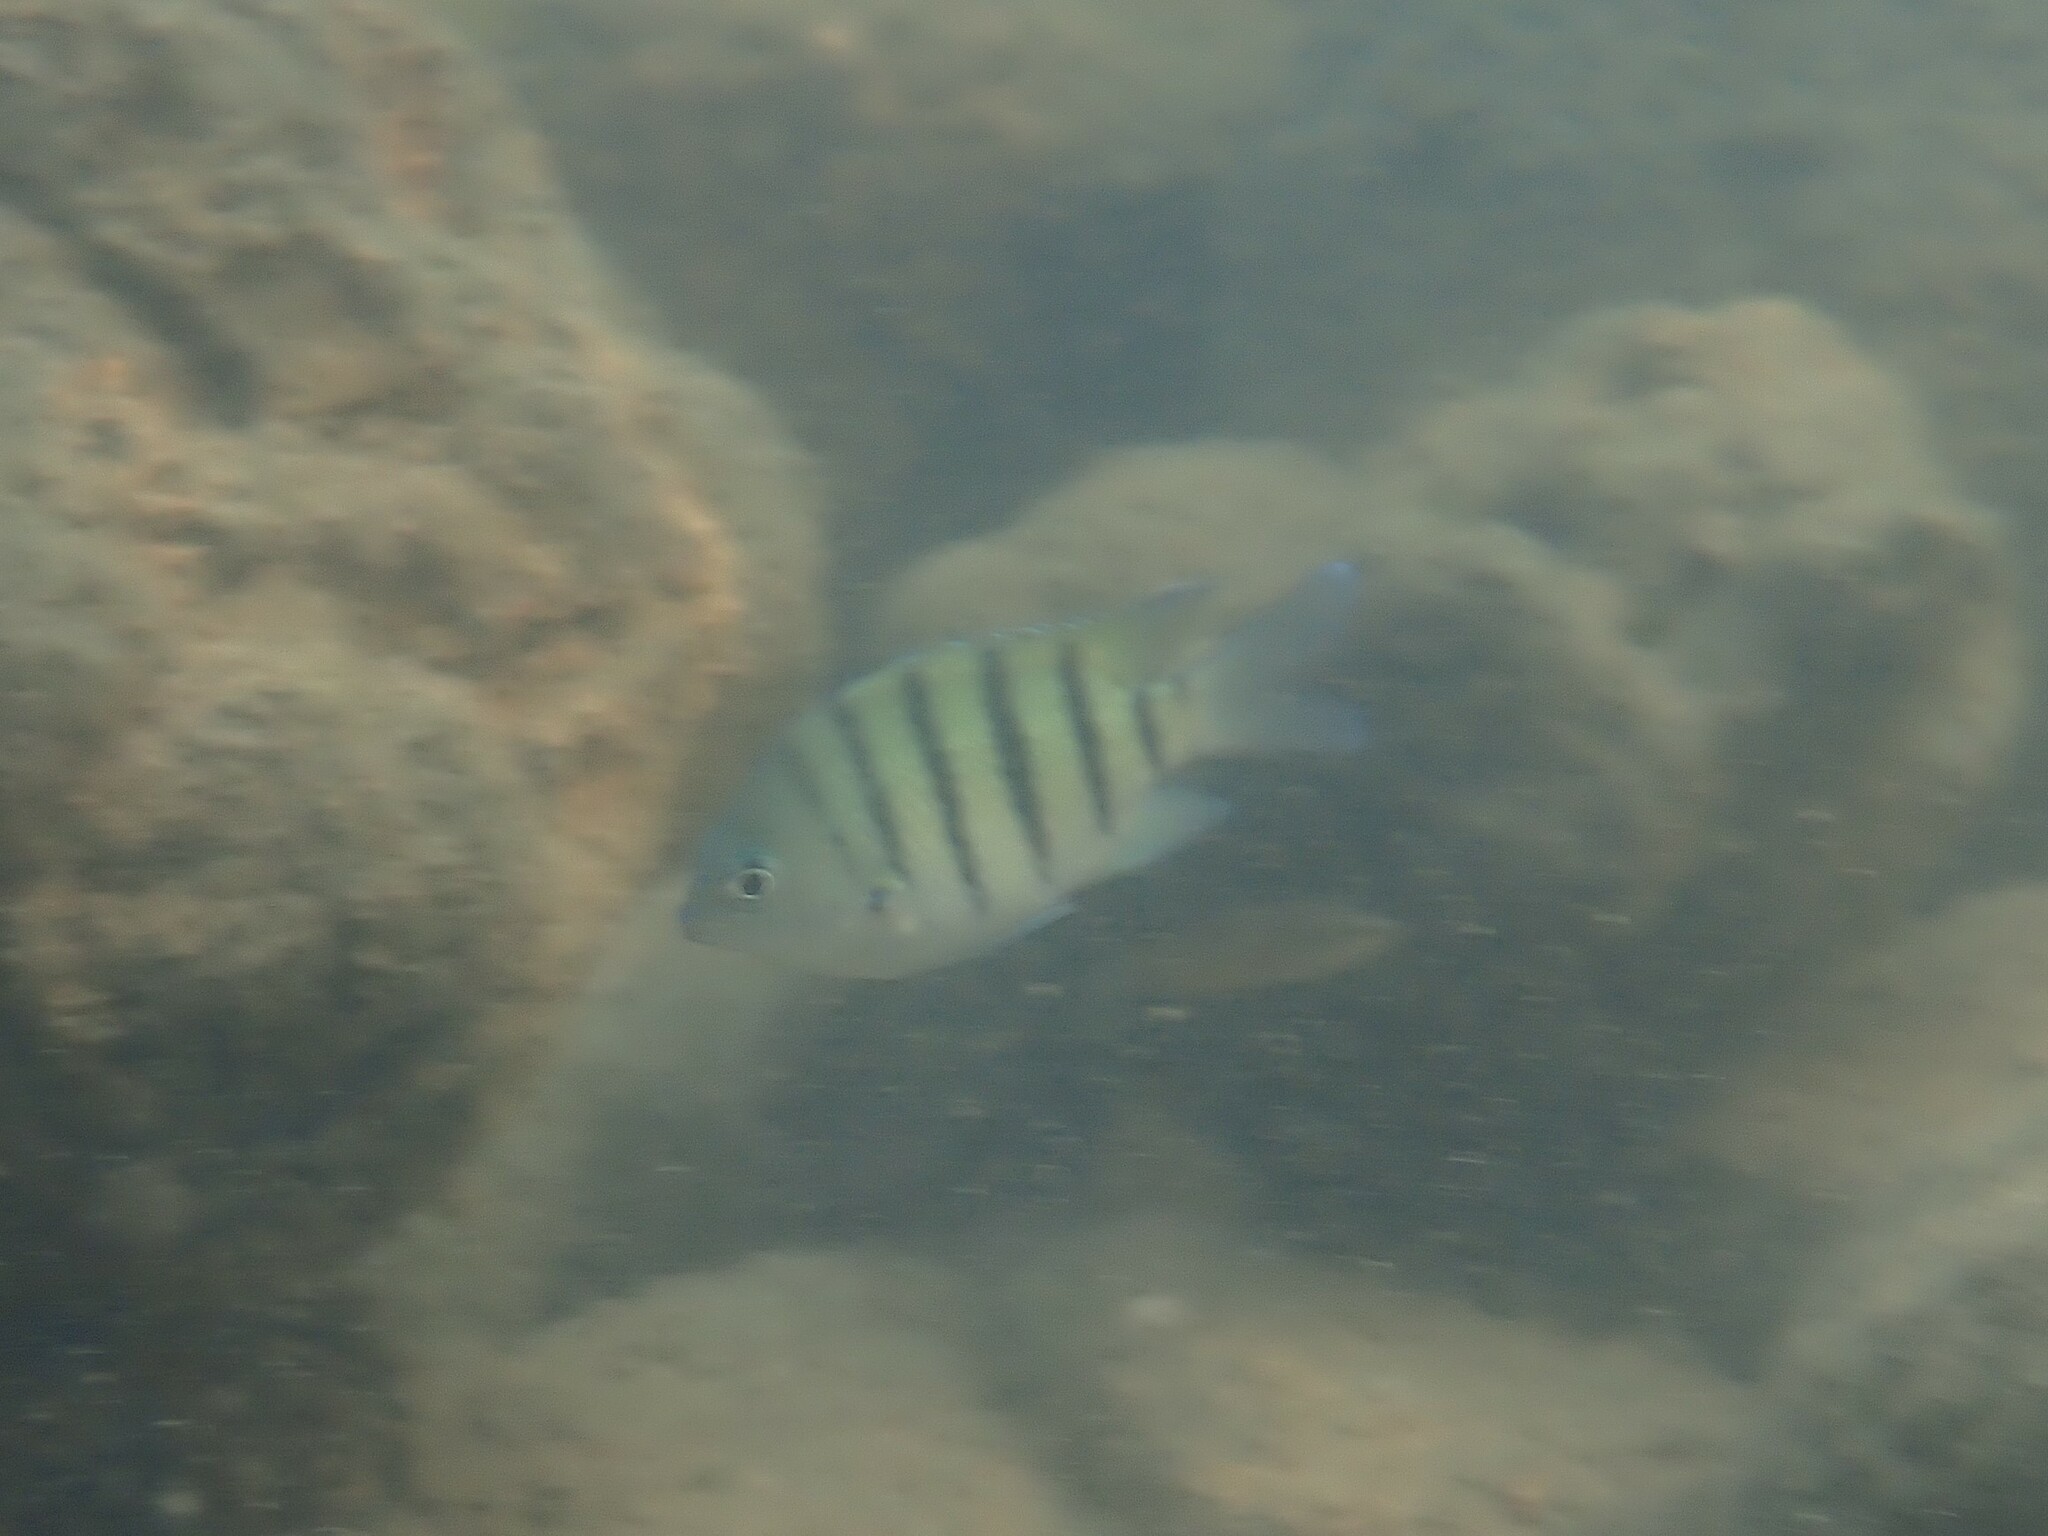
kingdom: Animalia
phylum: Chordata
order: Perciformes
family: Pomacentridae
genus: Abudefduf
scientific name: Abudefduf bengalensis
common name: Bengal sergeant
